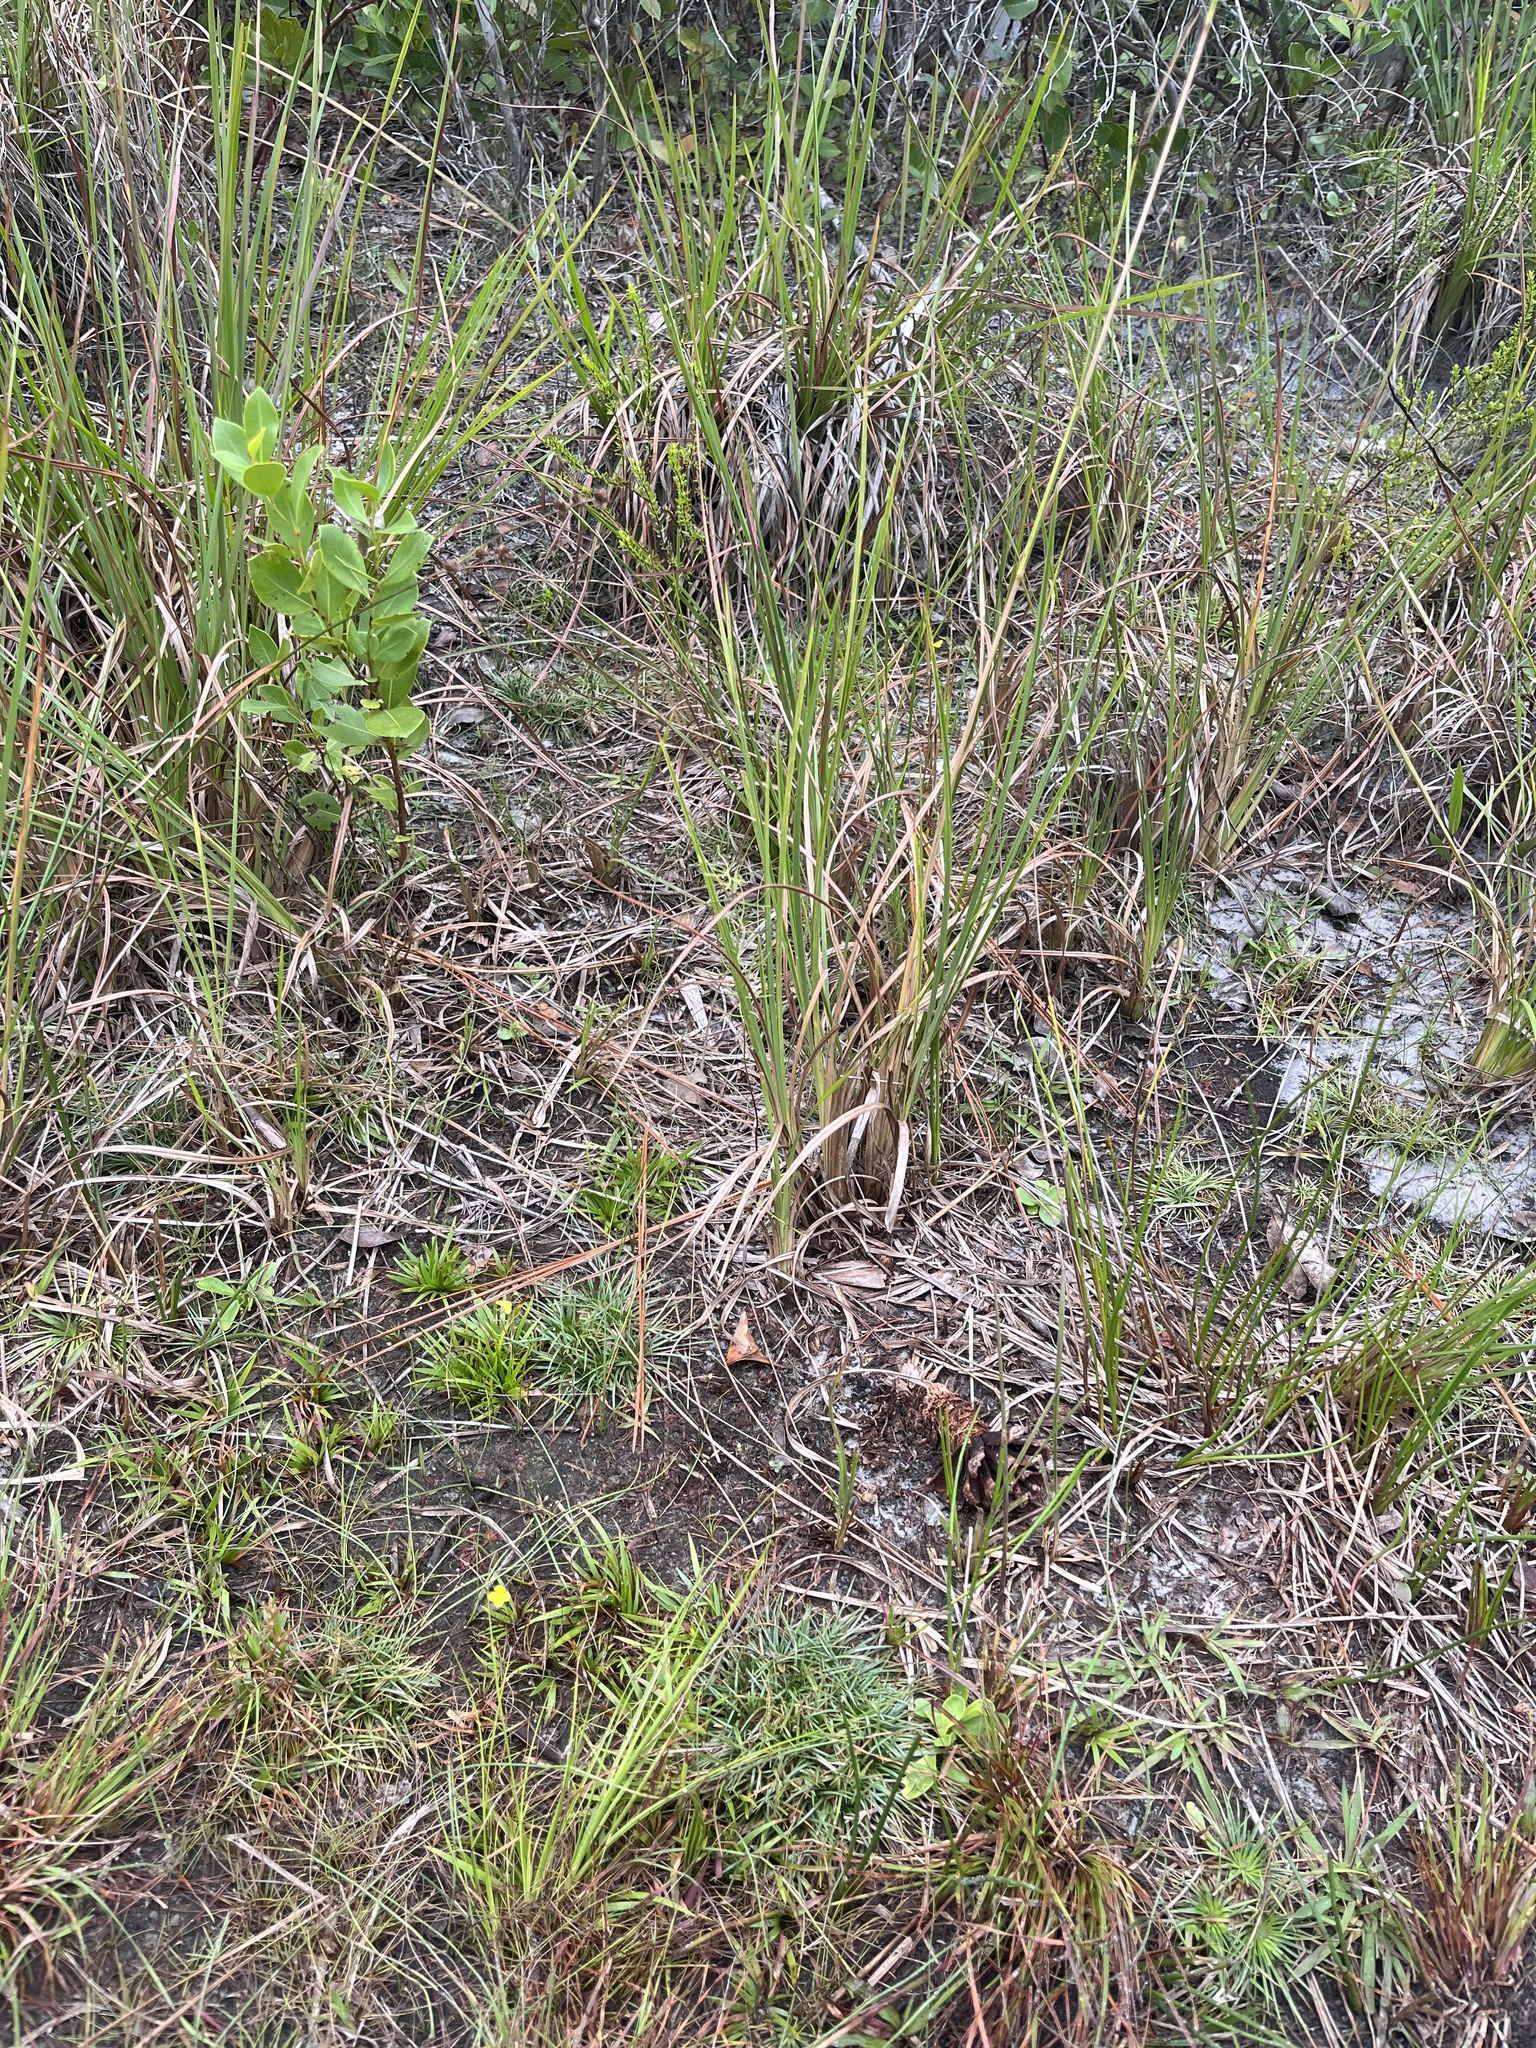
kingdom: Plantae
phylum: Tracheophyta
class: Magnoliopsida
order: Lamiales
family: Lentibulariaceae
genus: Utricularia
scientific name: Utricularia subulata
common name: Tiny bladderwort
